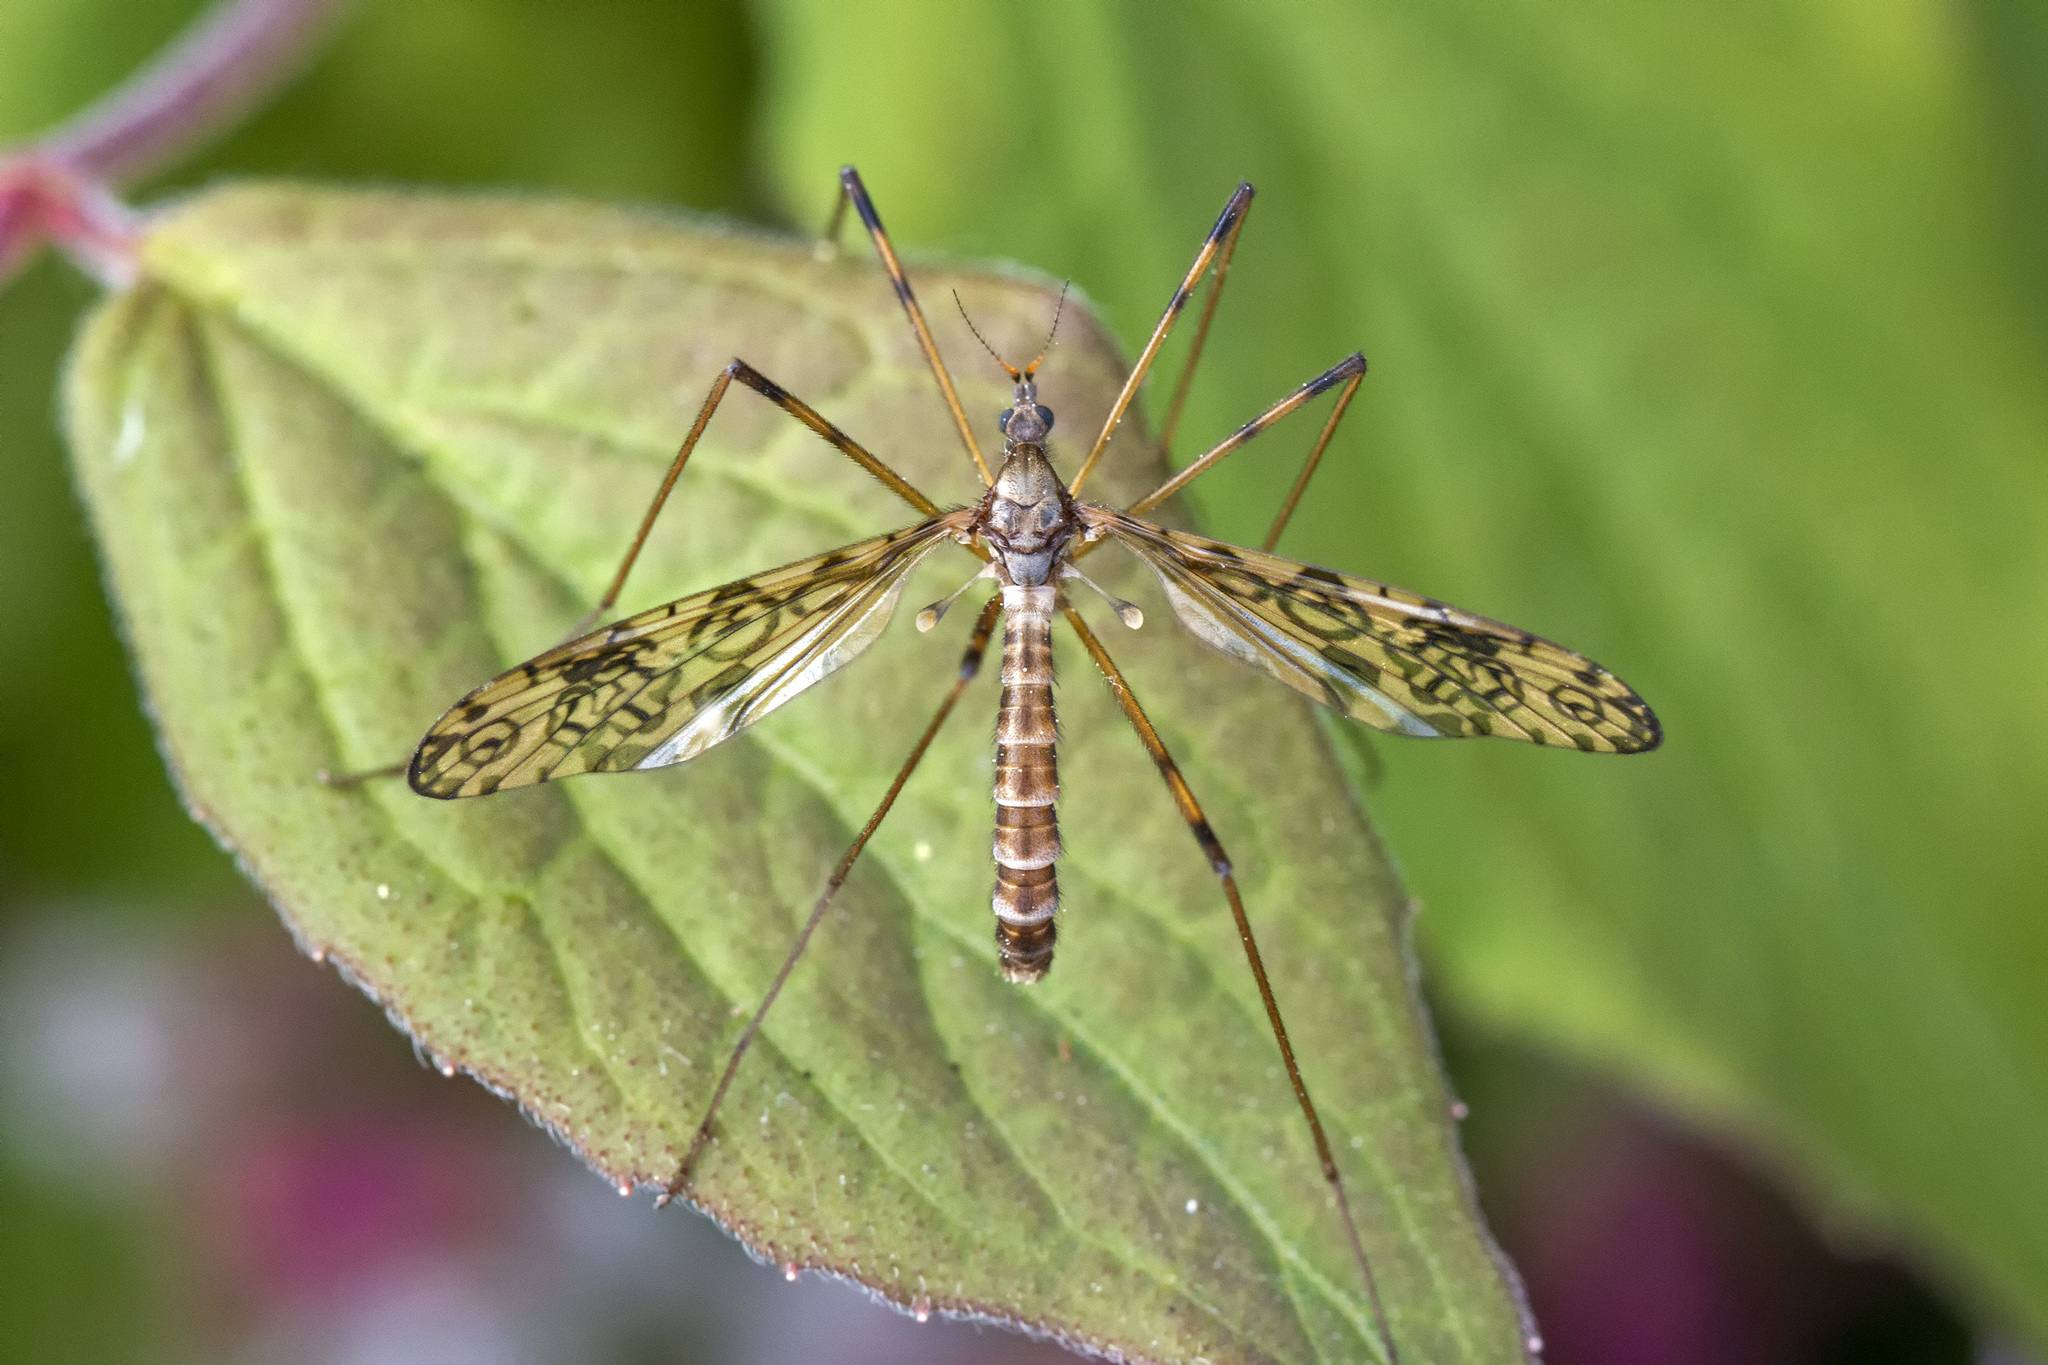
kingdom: Animalia
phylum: Arthropoda
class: Insecta
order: Diptera
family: Limoniidae
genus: Epiphragma
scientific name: Epiphragma ocellare
